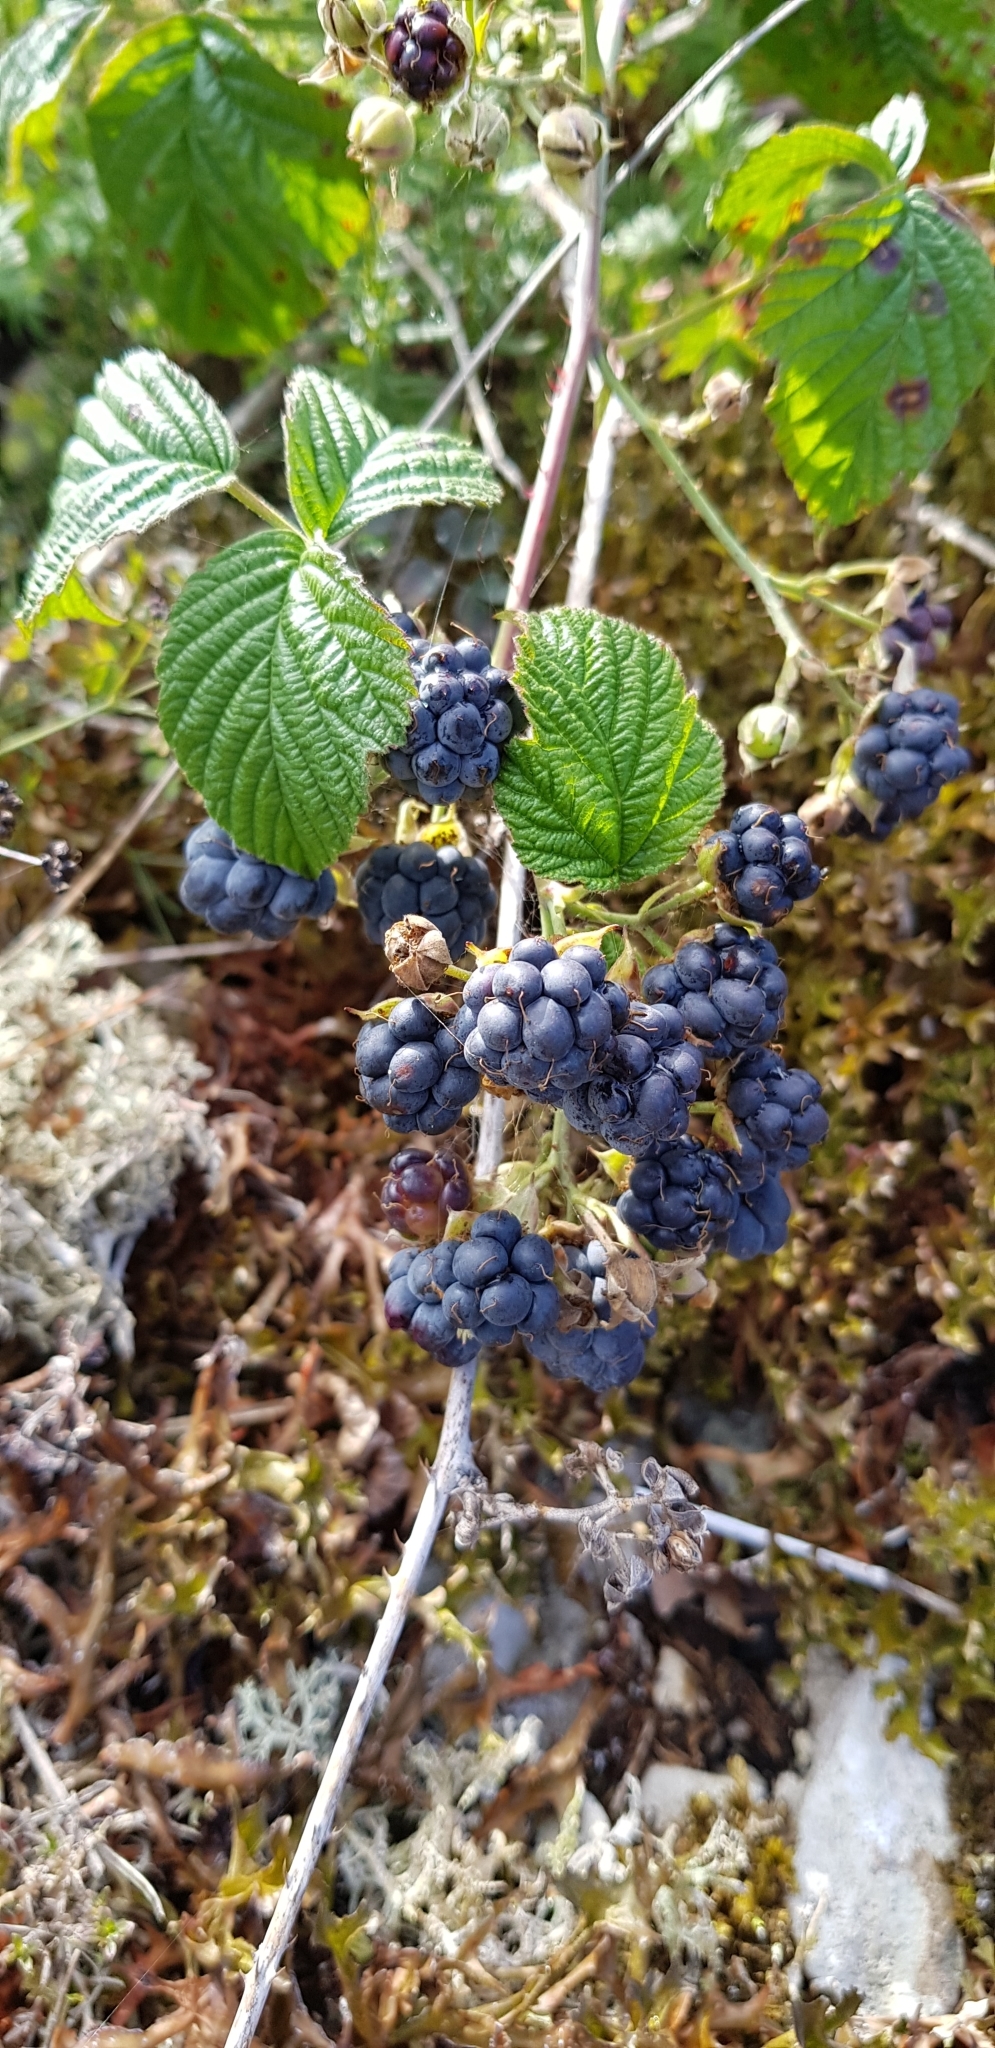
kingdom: Plantae
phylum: Tracheophyta
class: Magnoliopsida
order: Rosales
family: Rosaceae
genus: Rubus
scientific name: Rubus caesius
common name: Dewberry
